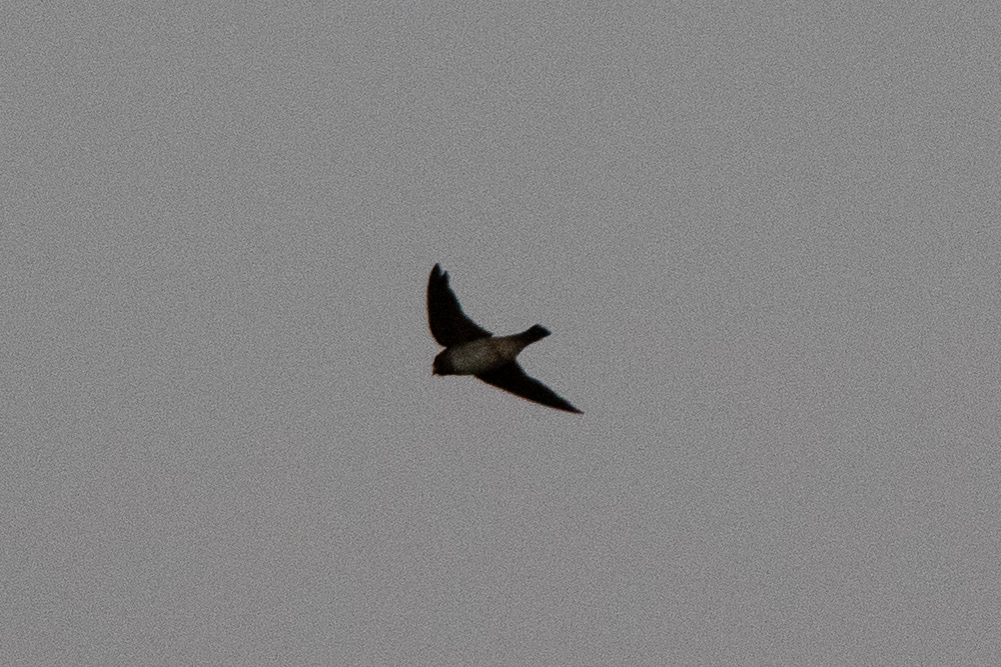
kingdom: Animalia
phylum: Chordata
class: Aves
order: Passeriformes
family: Hirundinidae
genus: Petrochelidon
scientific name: Petrochelidon pyrrhonota
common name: American cliff swallow
